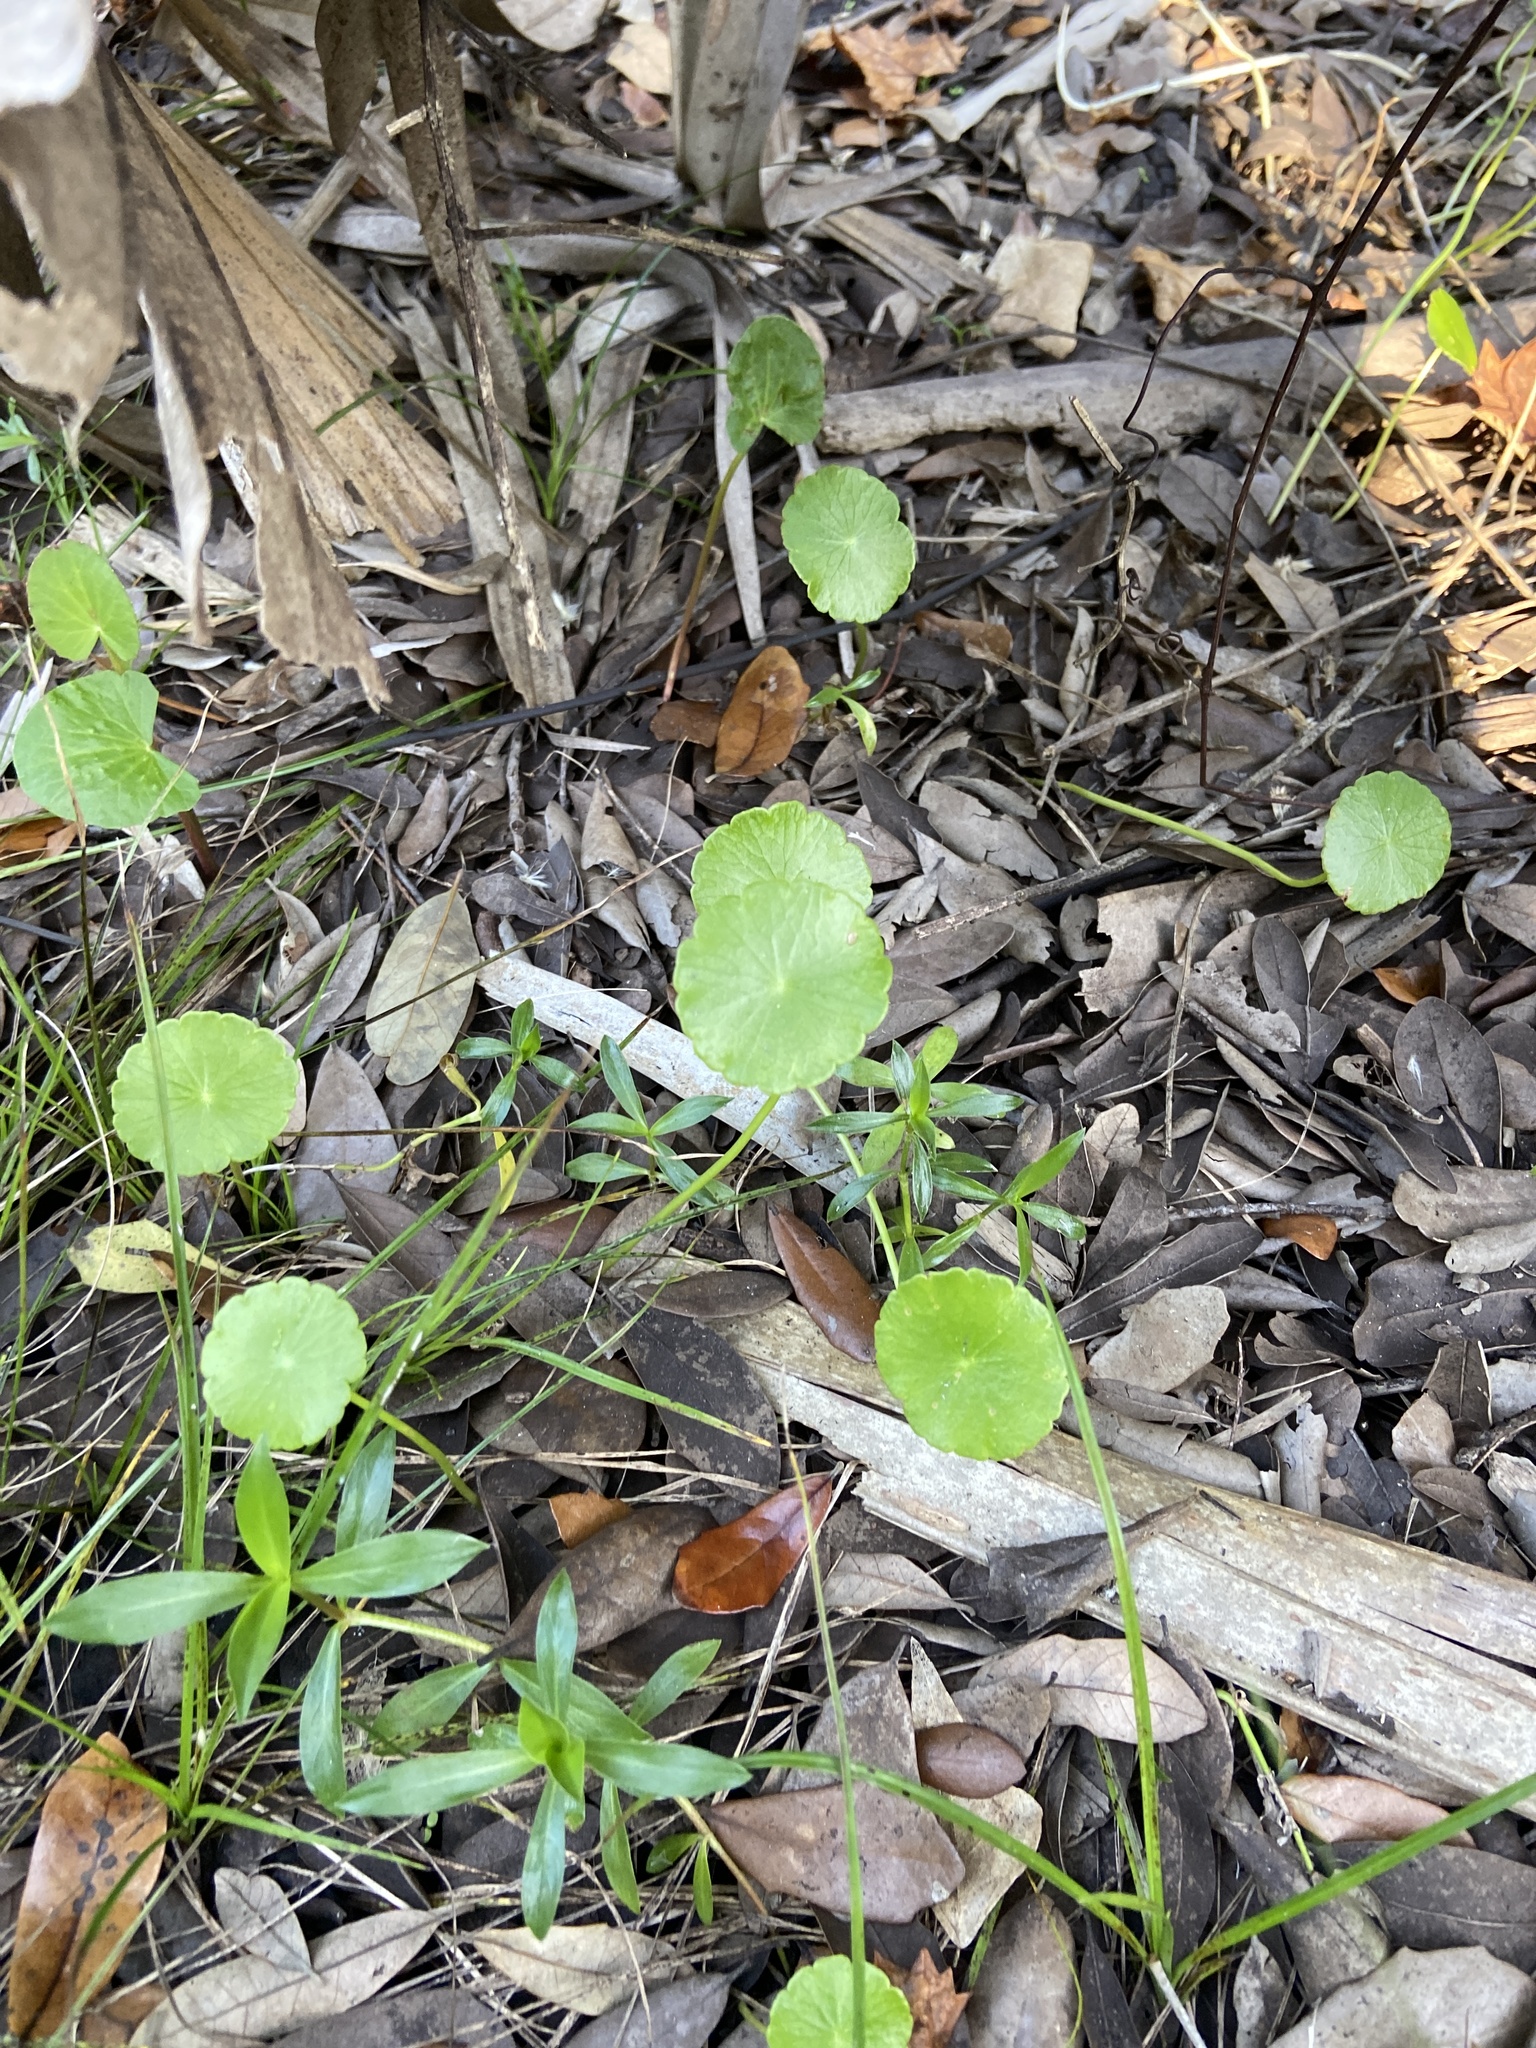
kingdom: Plantae
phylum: Tracheophyta
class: Magnoliopsida
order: Apiales
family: Araliaceae
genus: Hydrocotyle
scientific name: Hydrocotyle umbellata
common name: Water pennywort
